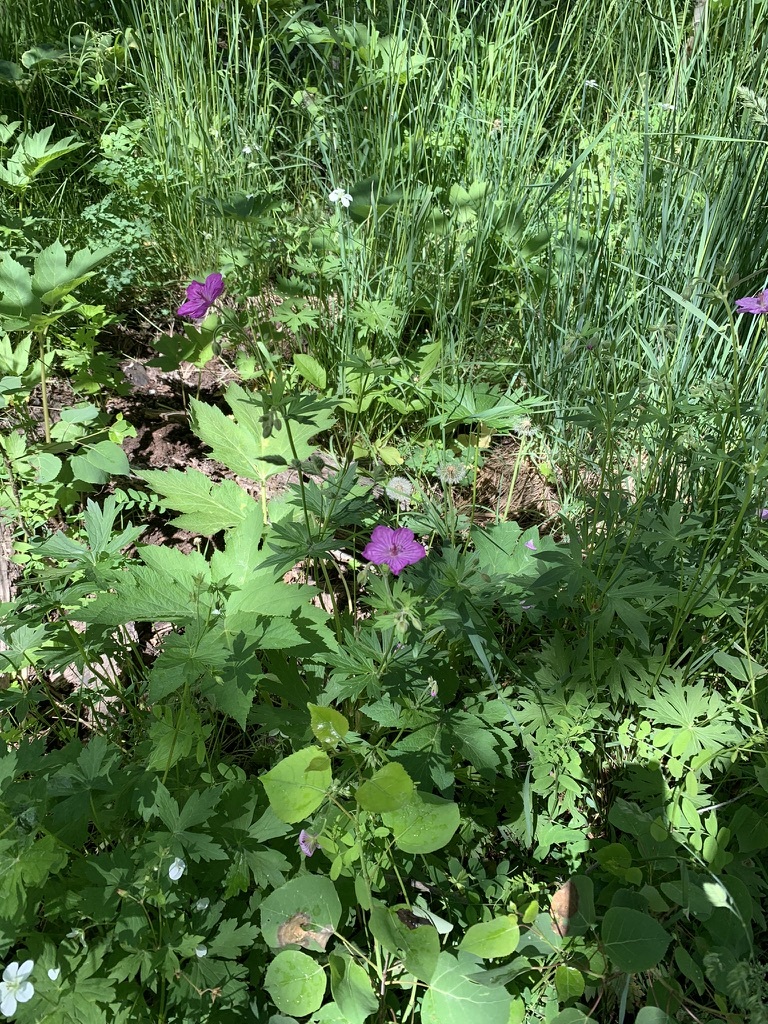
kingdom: Plantae
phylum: Tracheophyta
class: Magnoliopsida
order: Geraniales
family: Geraniaceae
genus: Geranium
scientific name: Geranium viscosissimum
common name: Purple geranium
